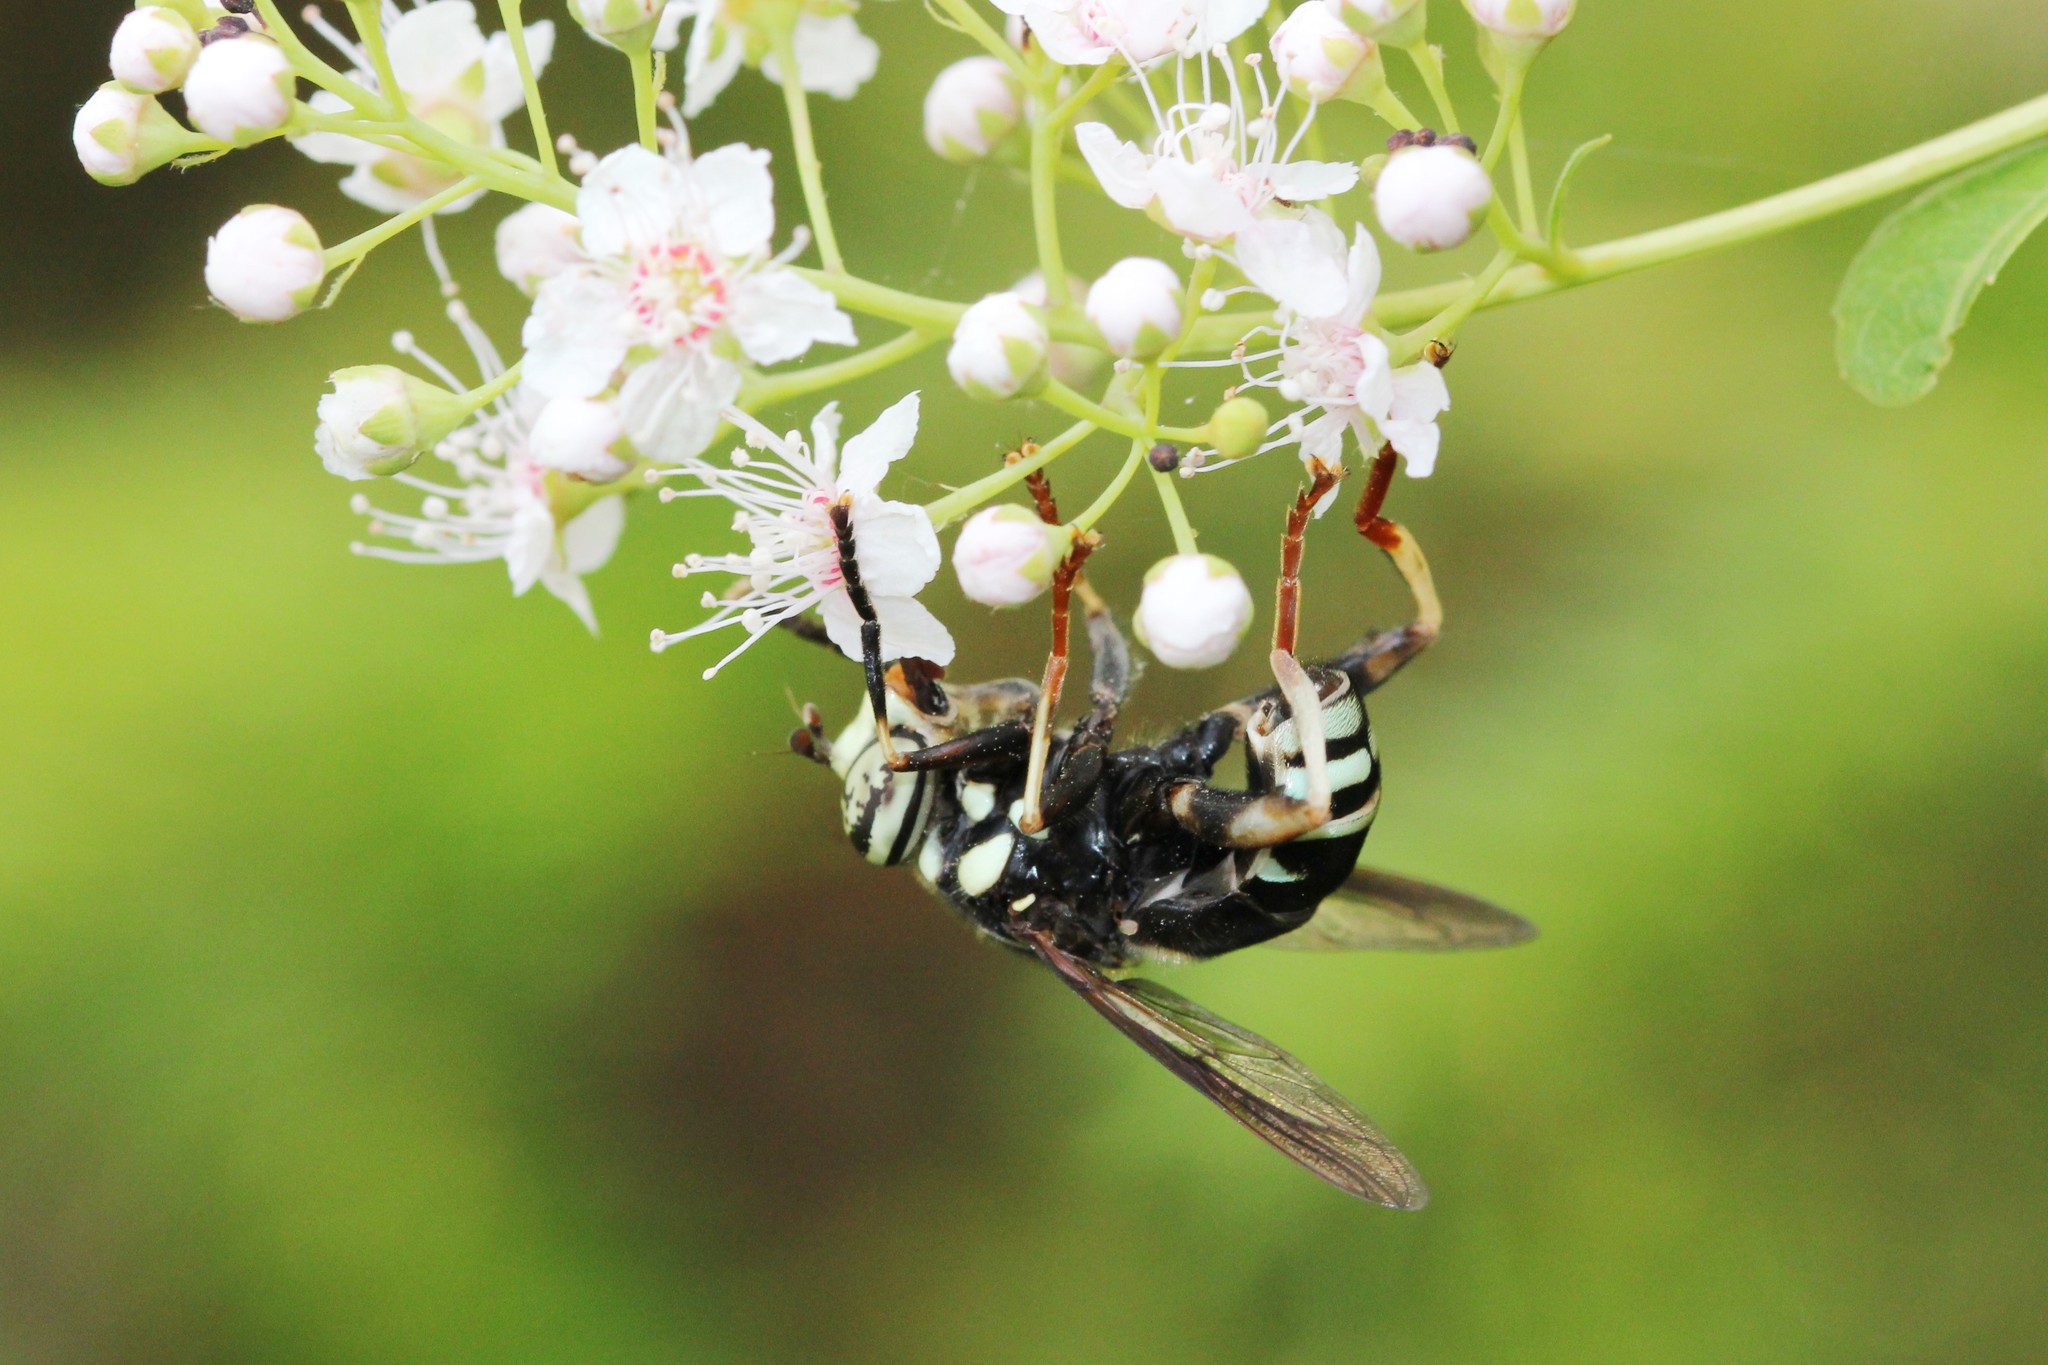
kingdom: Animalia
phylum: Arthropoda
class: Insecta
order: Diptera
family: Syrphidae
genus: Spilomyia
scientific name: Spilomyia fusca
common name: Bald-faced hornet fly
